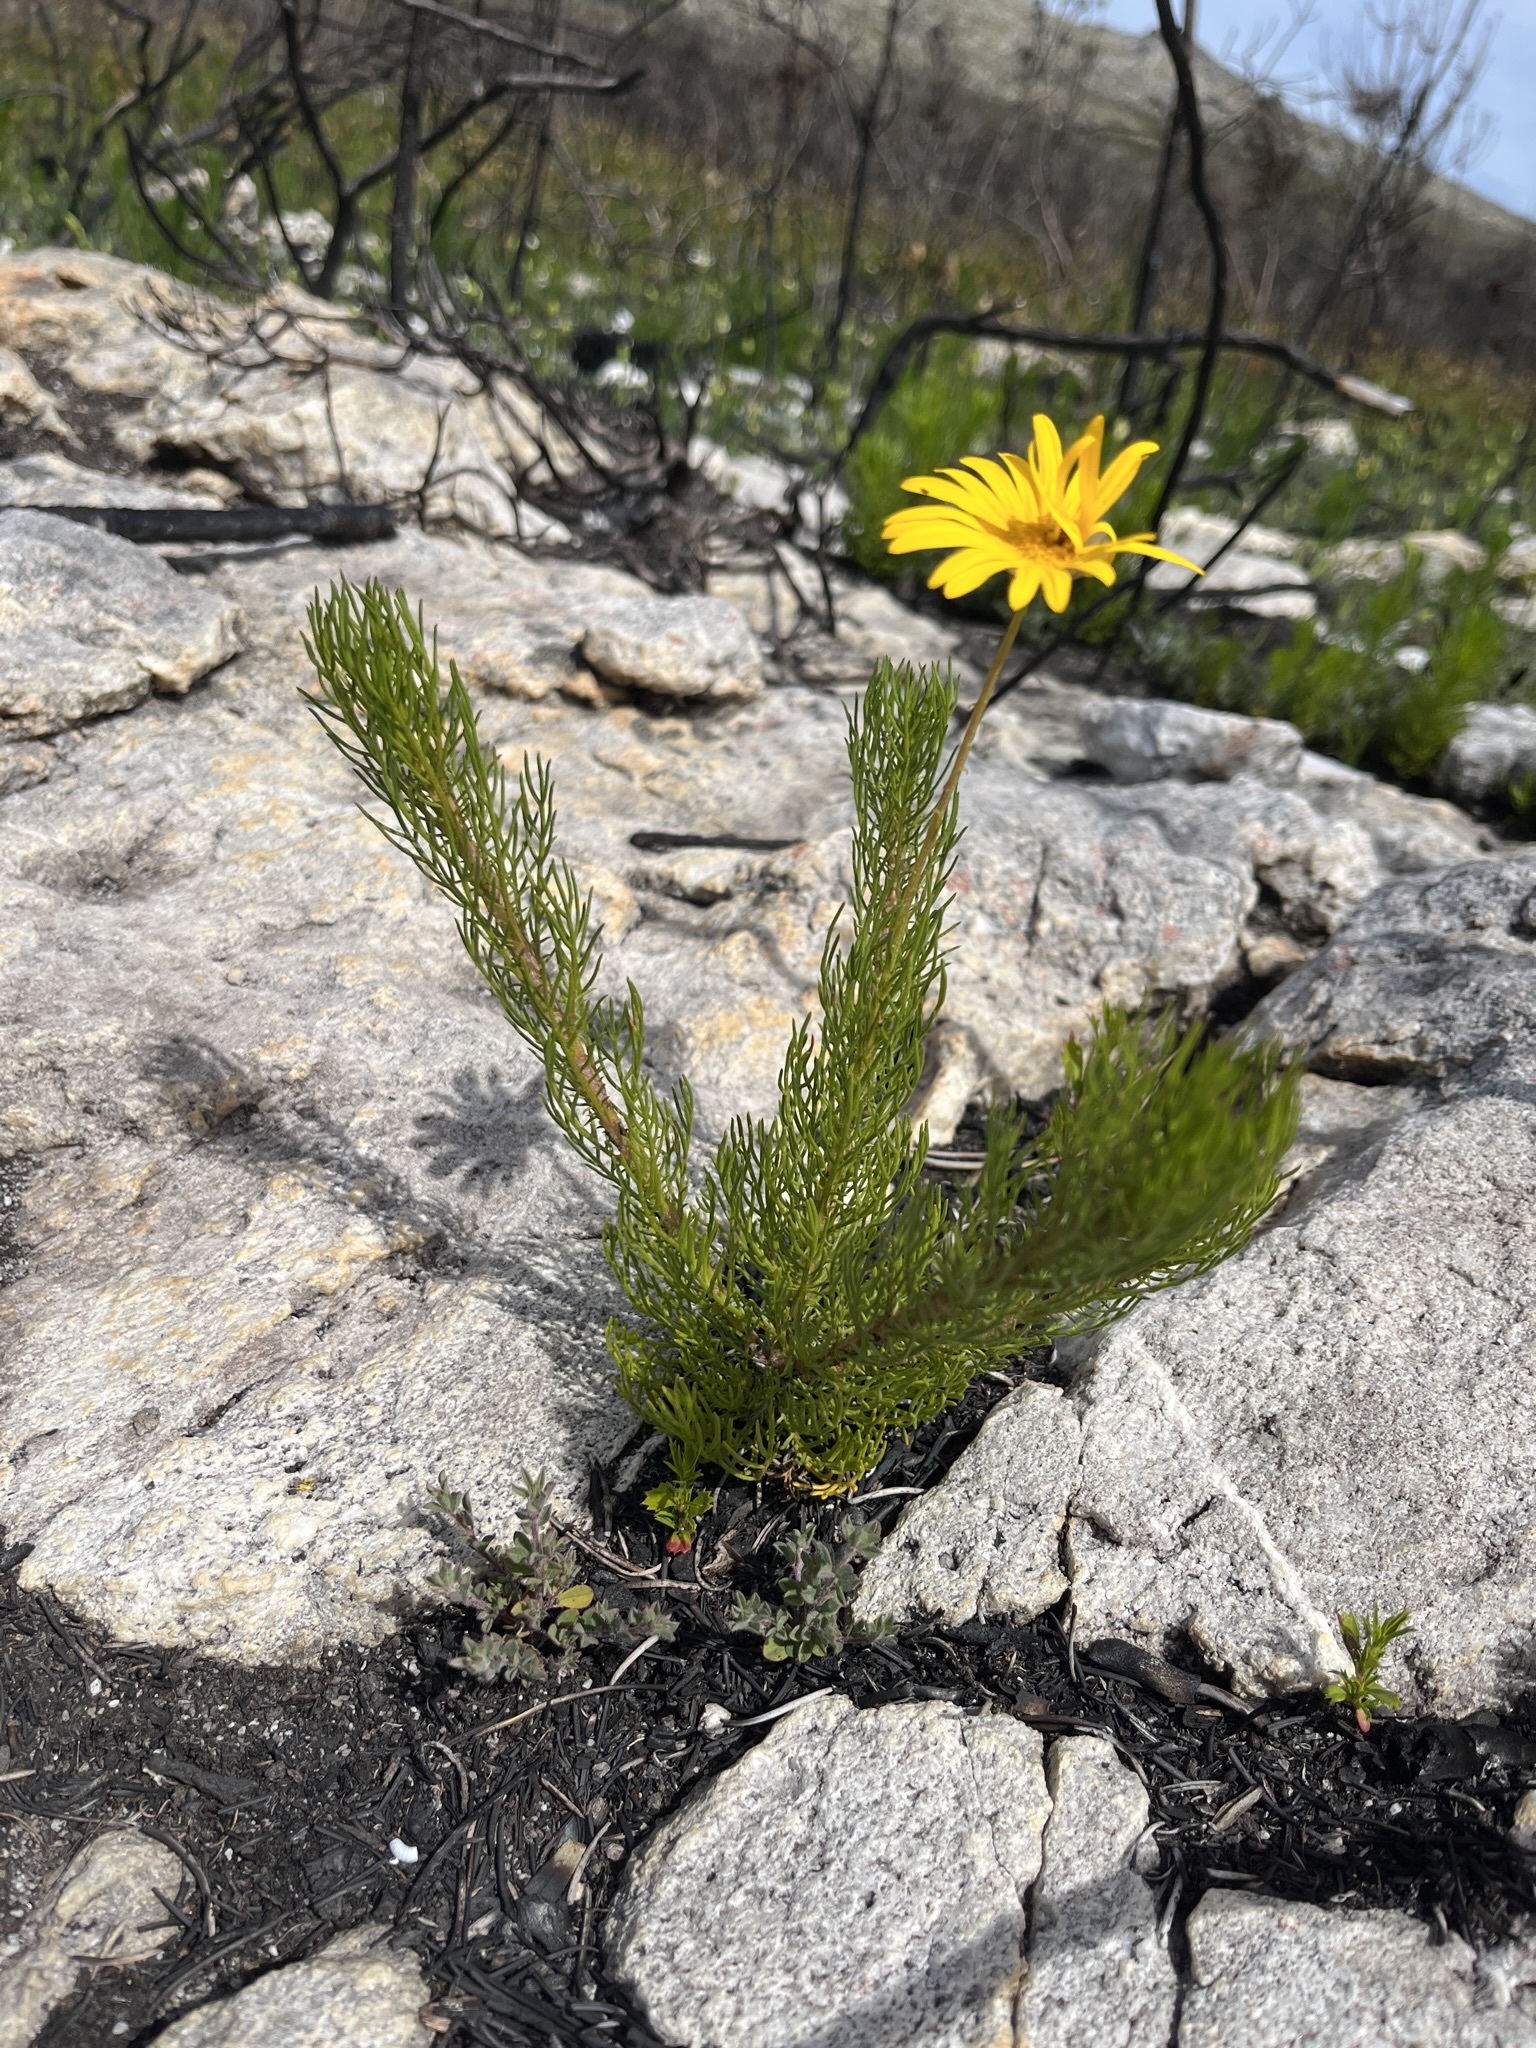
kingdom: Plantae
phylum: Tracheophyta
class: Magnoliopsida
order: Asterales
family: Asteraceae
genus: Euryops
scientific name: Euryops abrotanifolius
